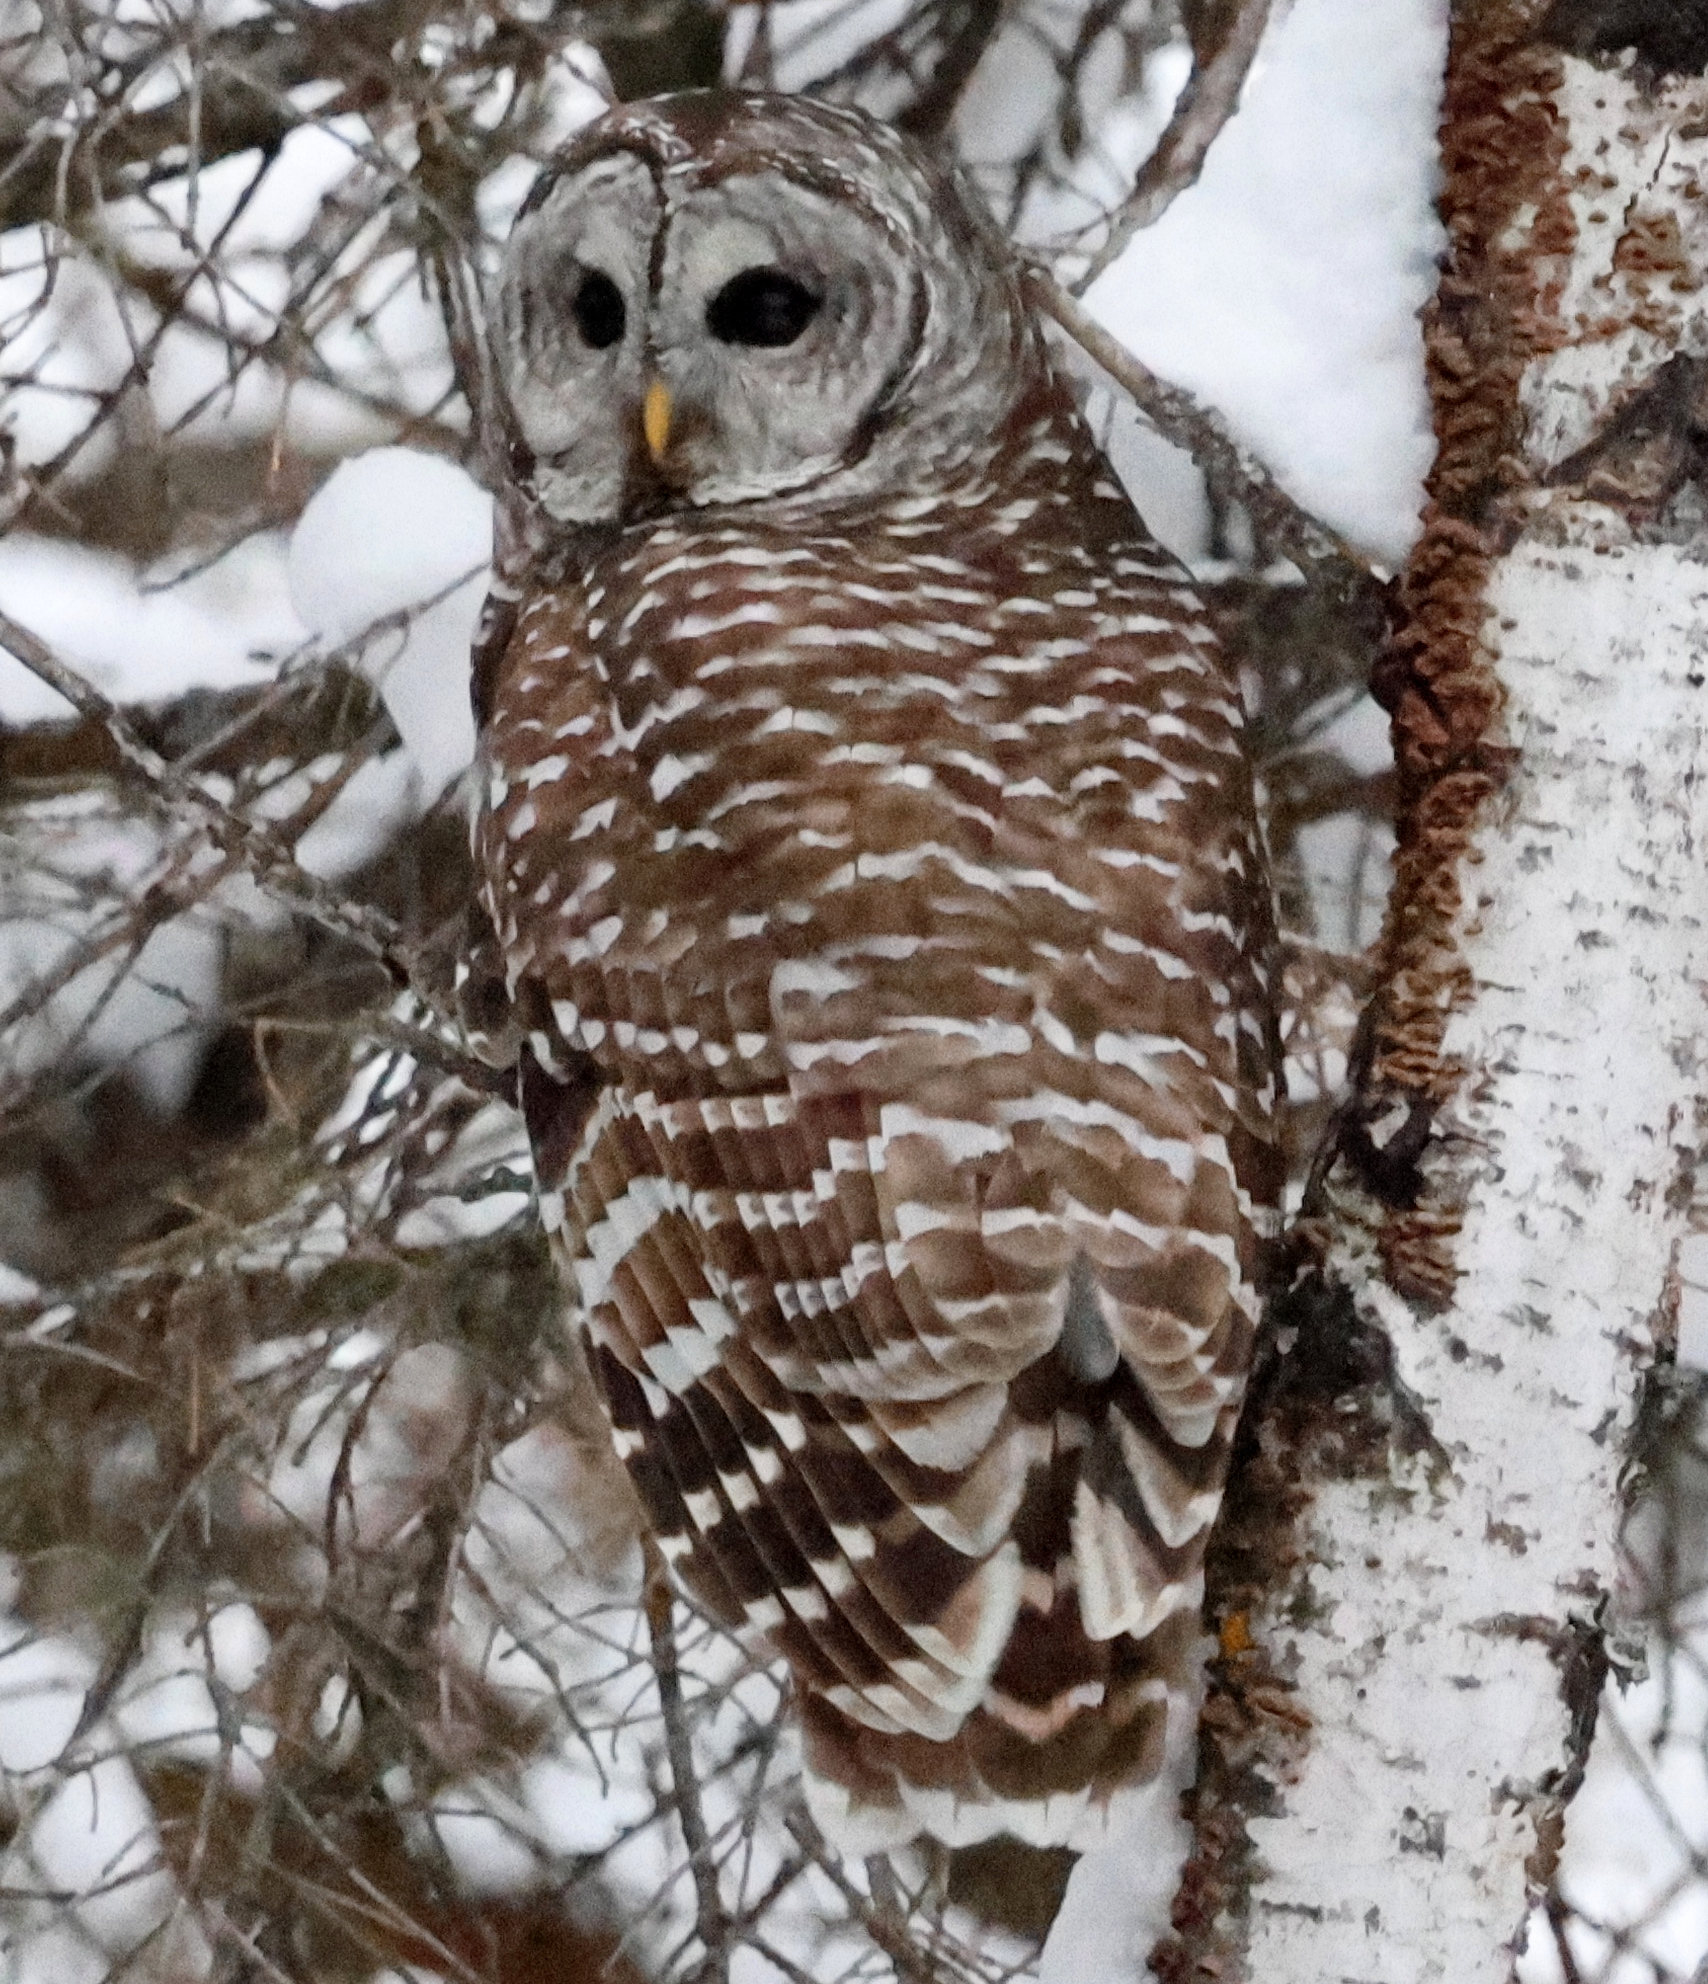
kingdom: Animalia
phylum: Chordata
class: Aves
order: Strigiformes
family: Strigidae
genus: Strix
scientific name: Strix varia
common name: Barred owl
